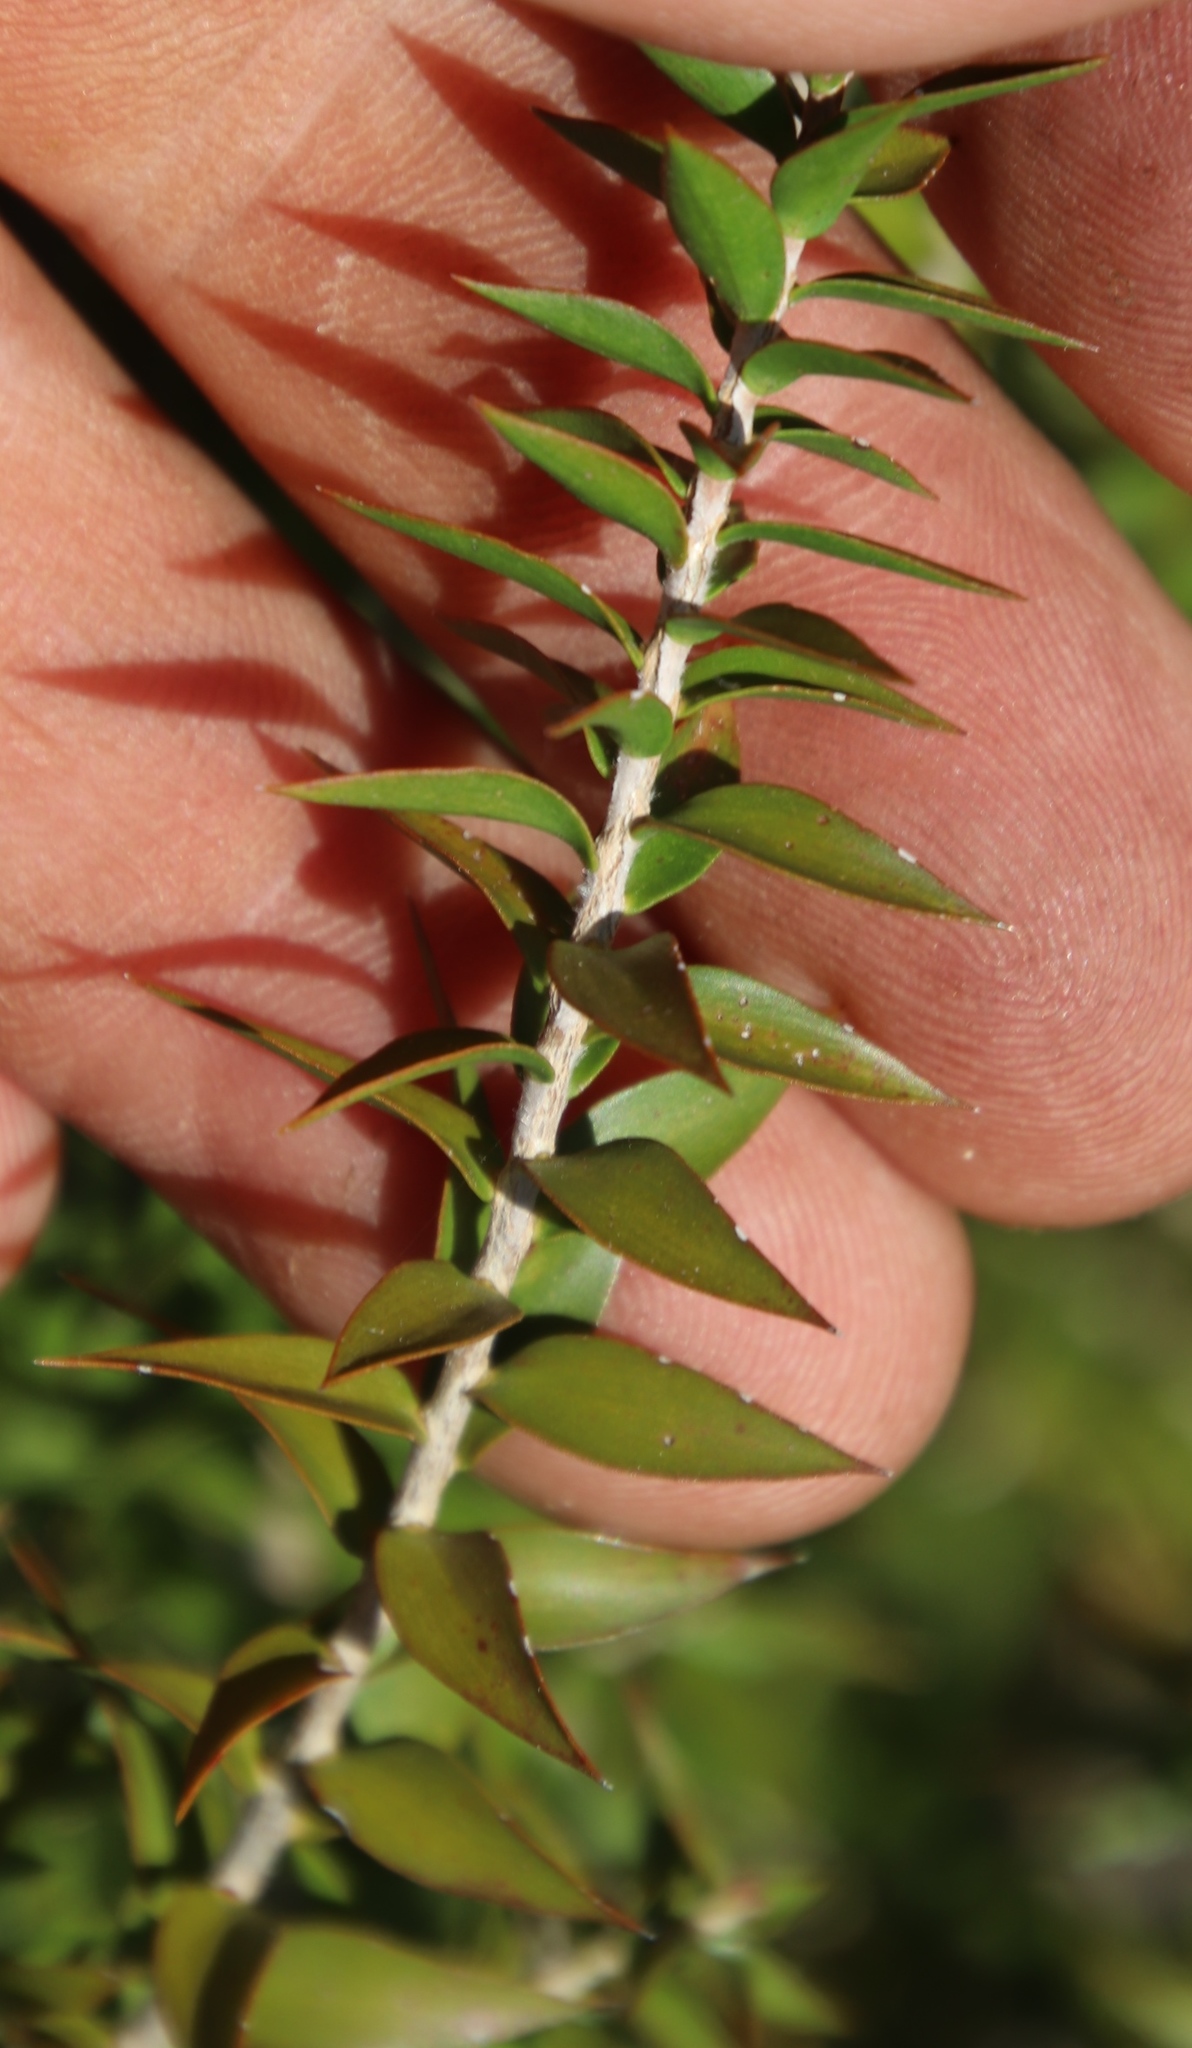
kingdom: Plantae
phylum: Tracheophyta
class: Magnoliopsida
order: Myrtales
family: Myrtaceae
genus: Melaleuca
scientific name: Melaleuca styphelioides
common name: Prickly paperbark
